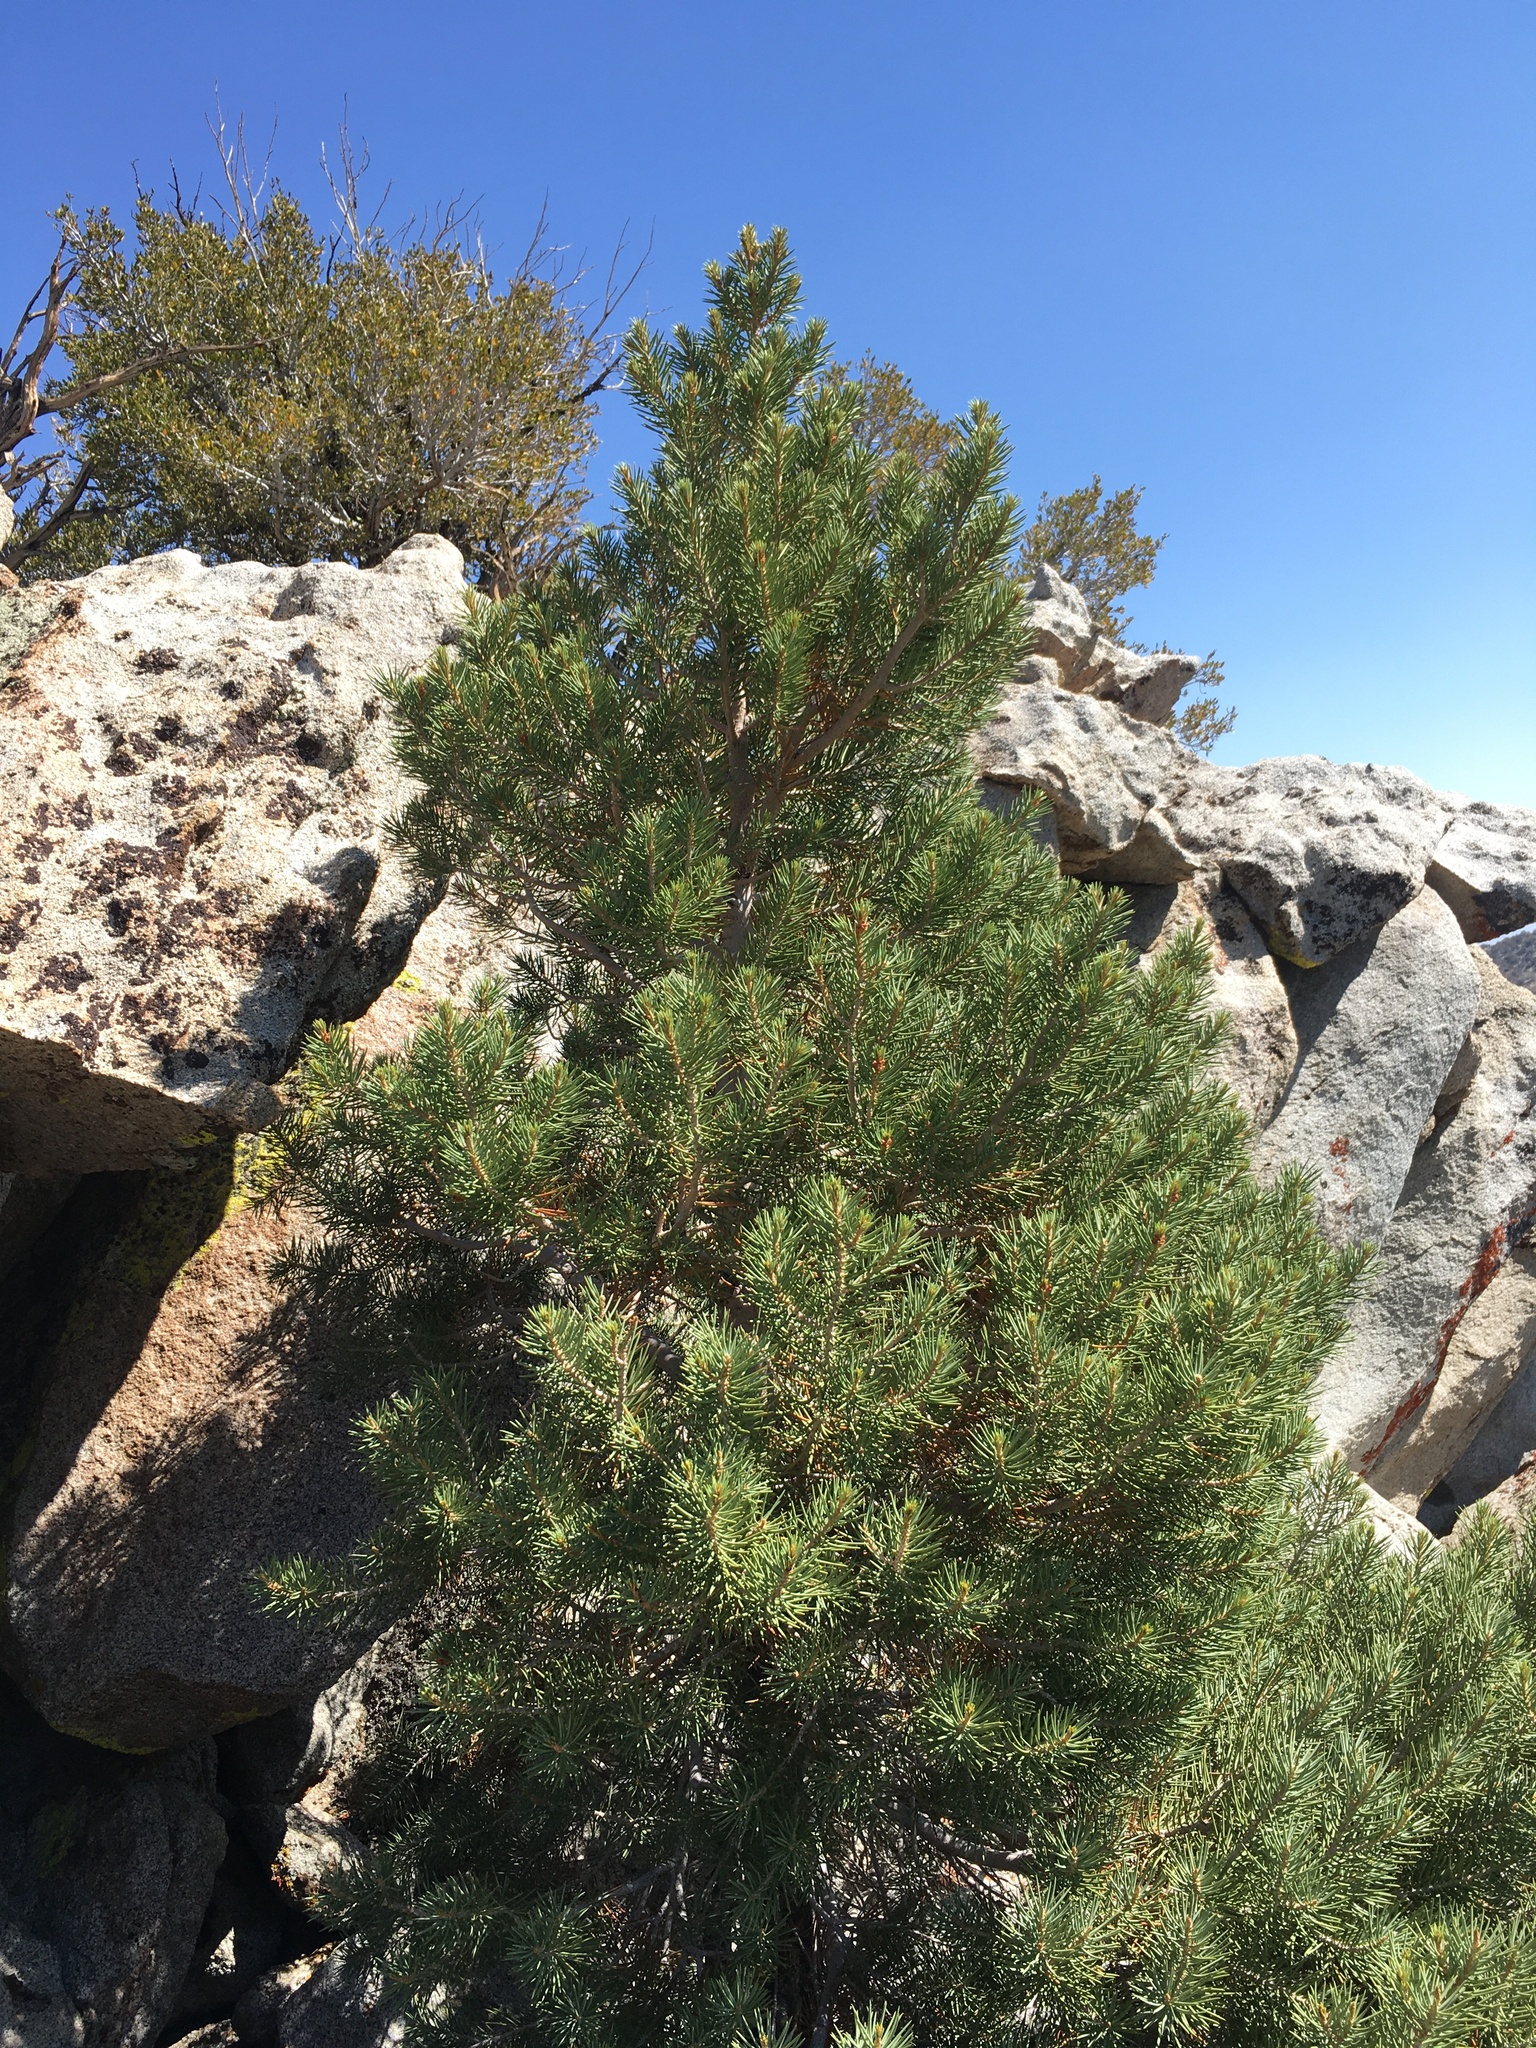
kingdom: Plantae
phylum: Tracheophyta
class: Pinopsida
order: Pinales
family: Pinaceae
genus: Pinus
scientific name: Pinus monophylla
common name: One-leaved nut pine
